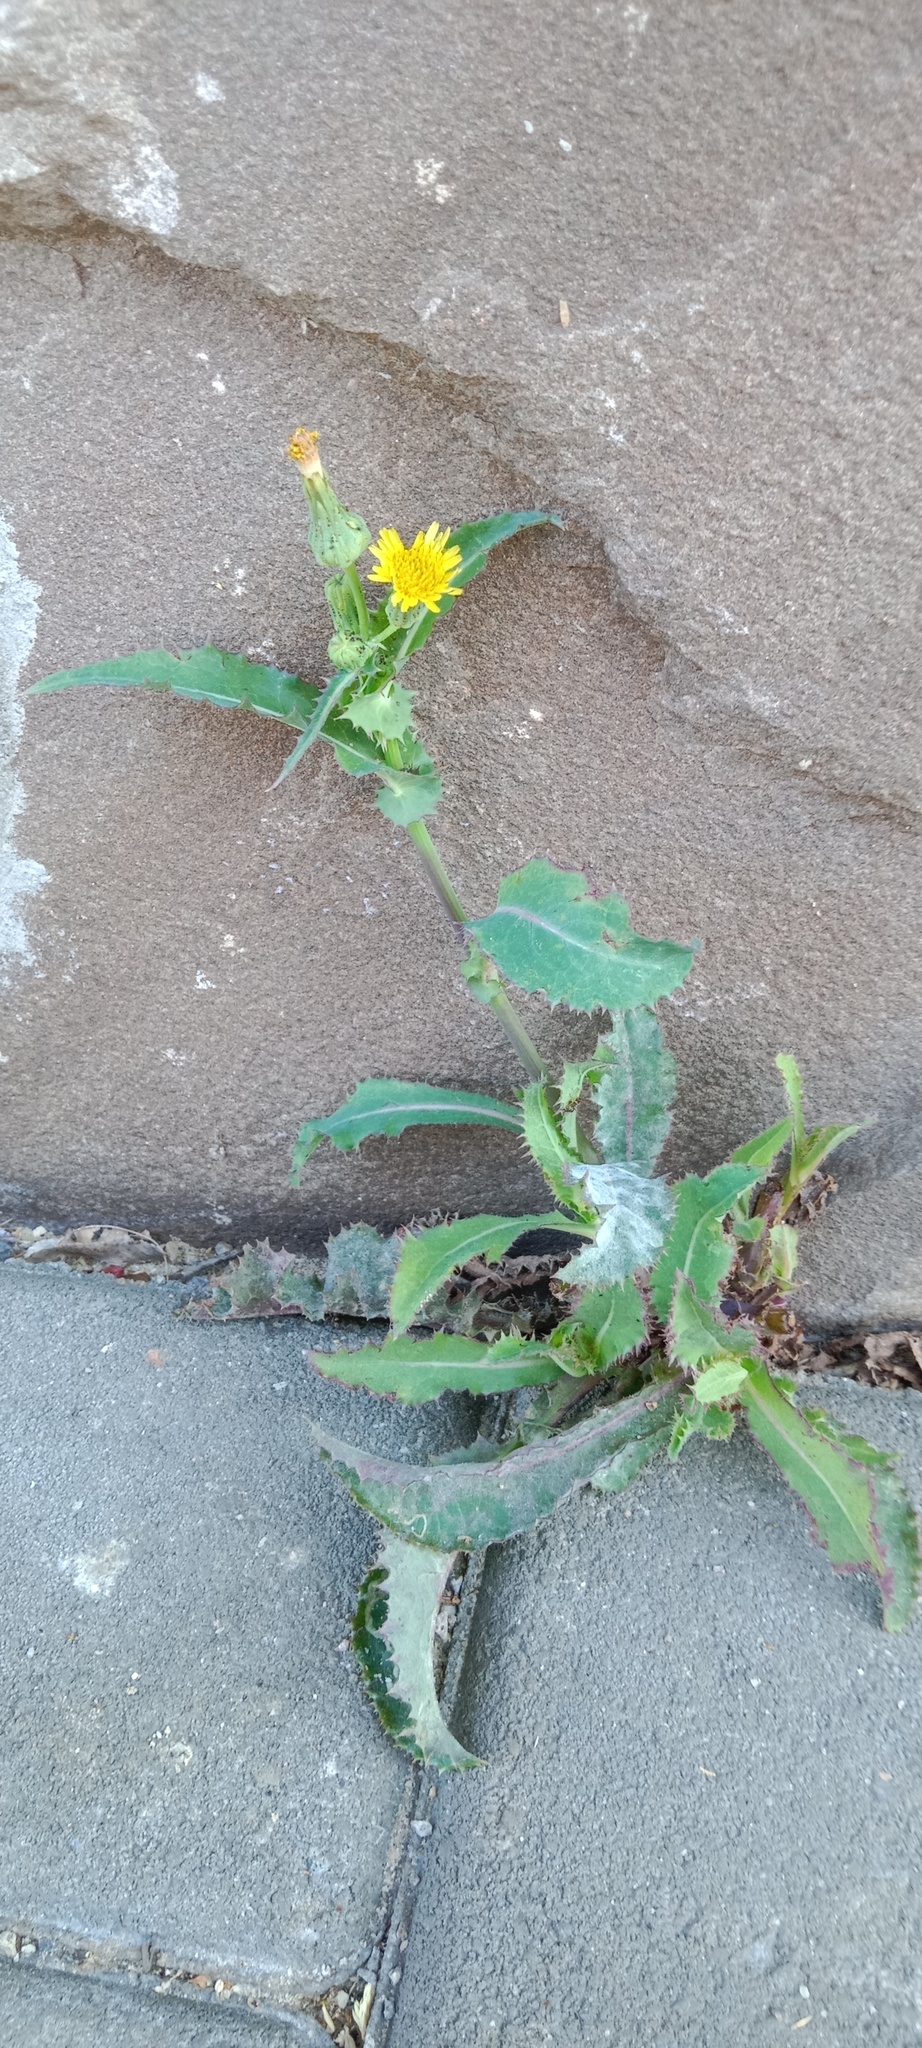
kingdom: Plantae
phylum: Tracheophyta
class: Magnoliopsida
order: Asterales
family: Asteraceae
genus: Sonchus
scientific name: Sonchus asper
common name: Prickly sow-thistle
